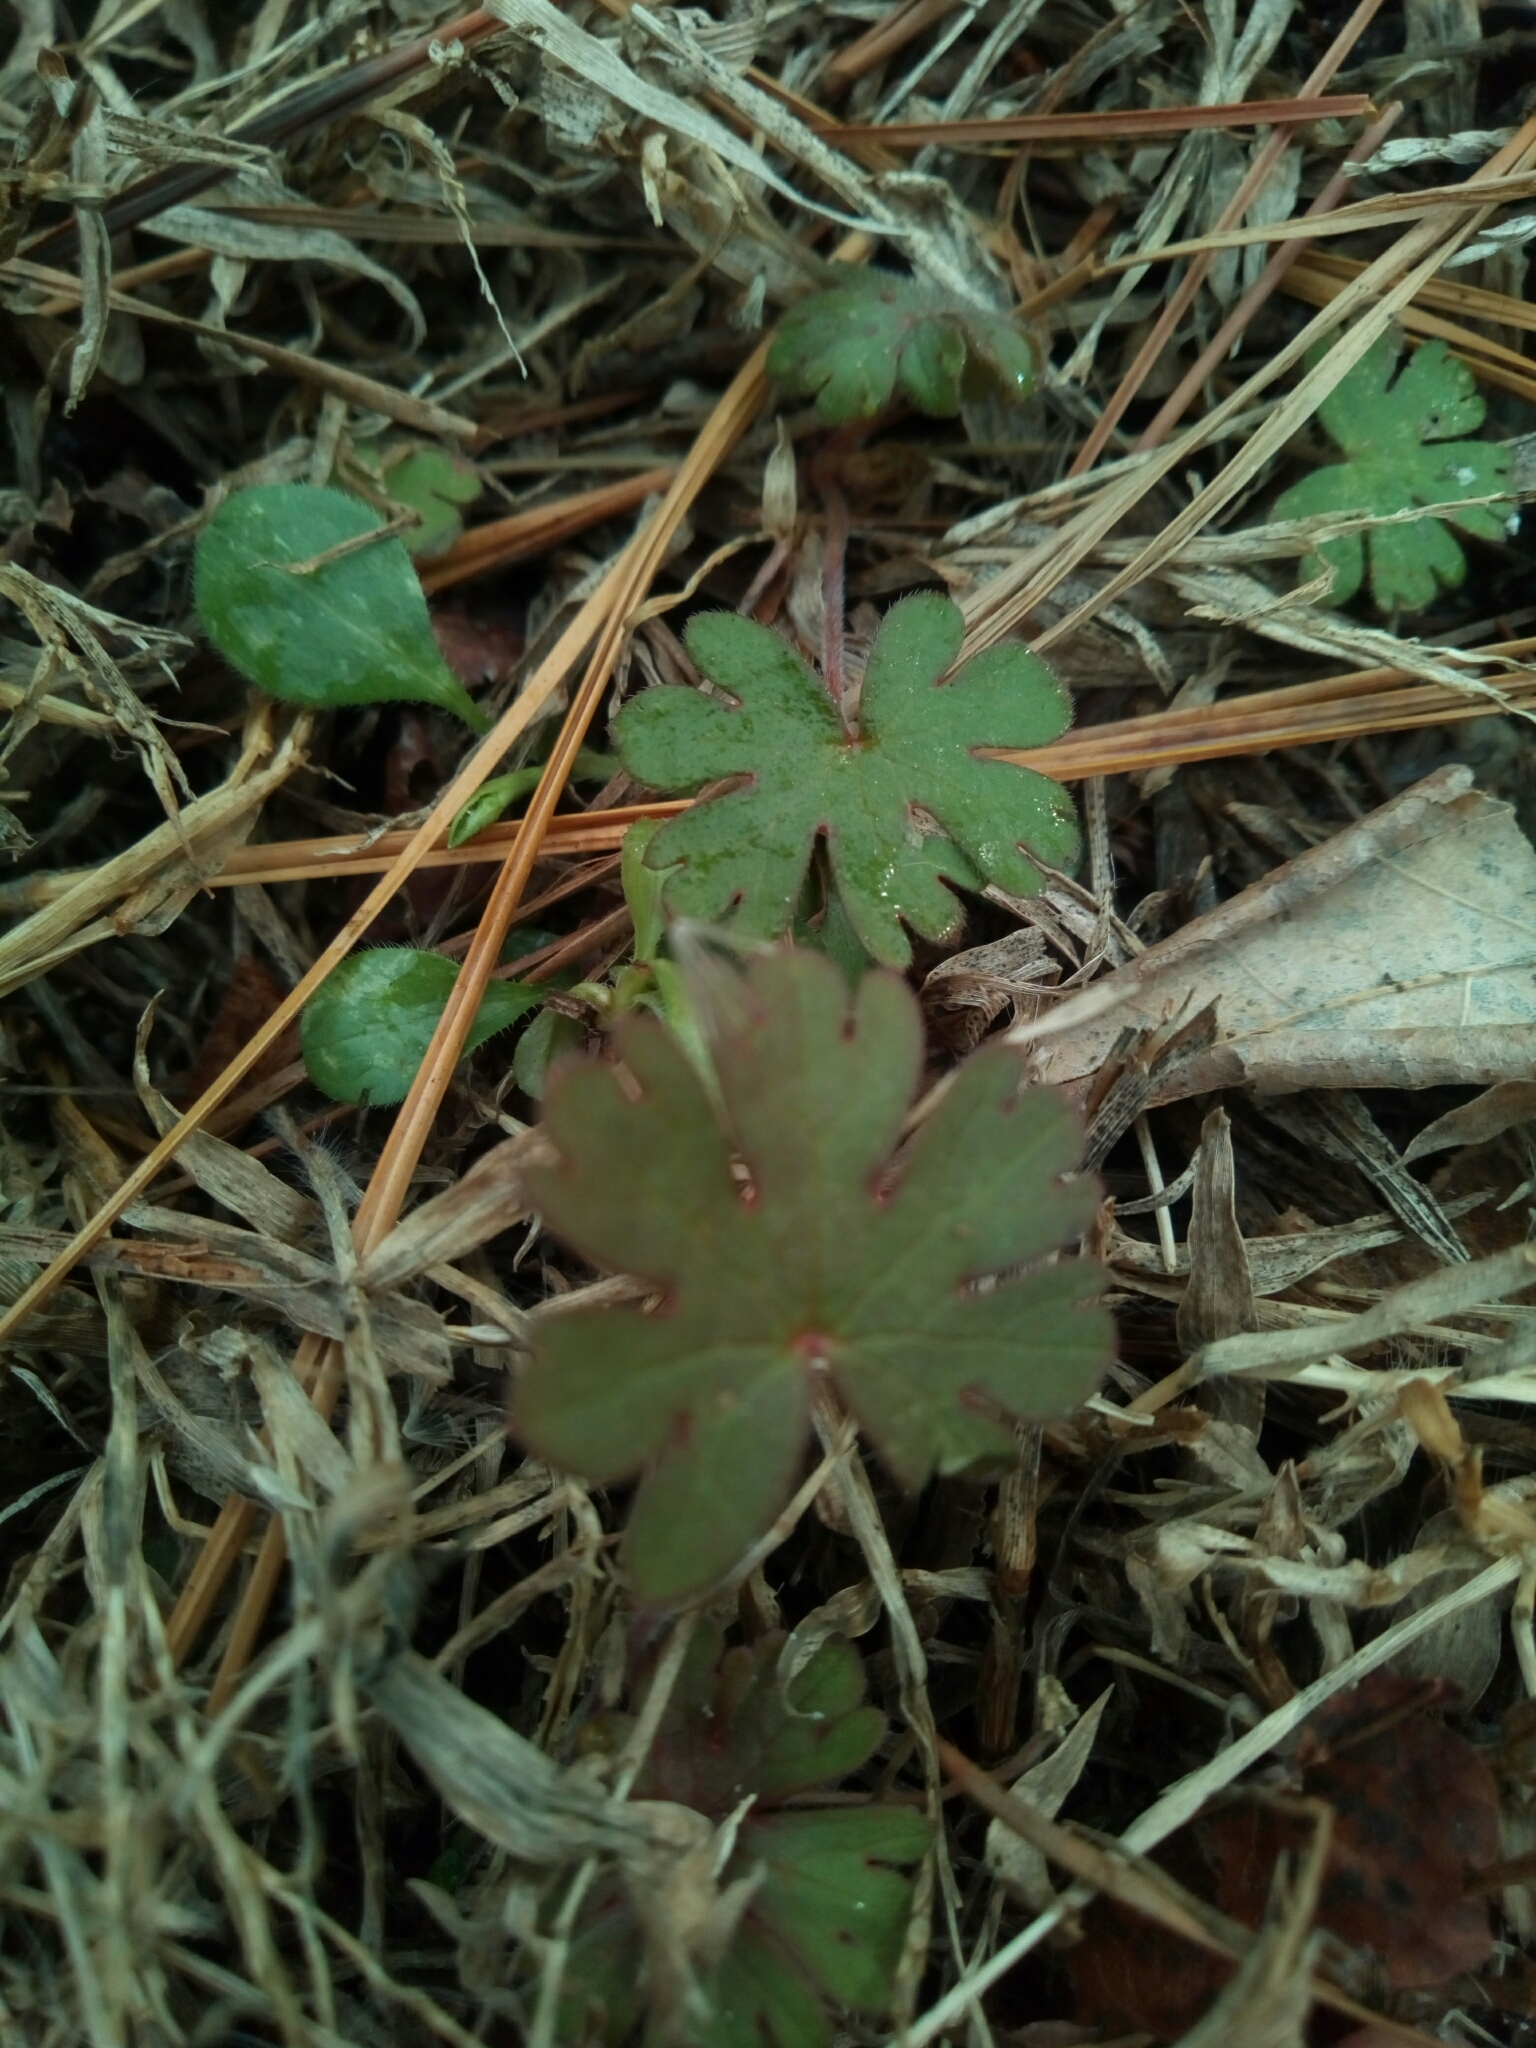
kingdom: Plantae
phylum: Tracheophyta
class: Magnoliopsida
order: Geraniales
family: Geraniaceae
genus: Geranium
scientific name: Geranium carolinianum
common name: Carolina crane's-bill
